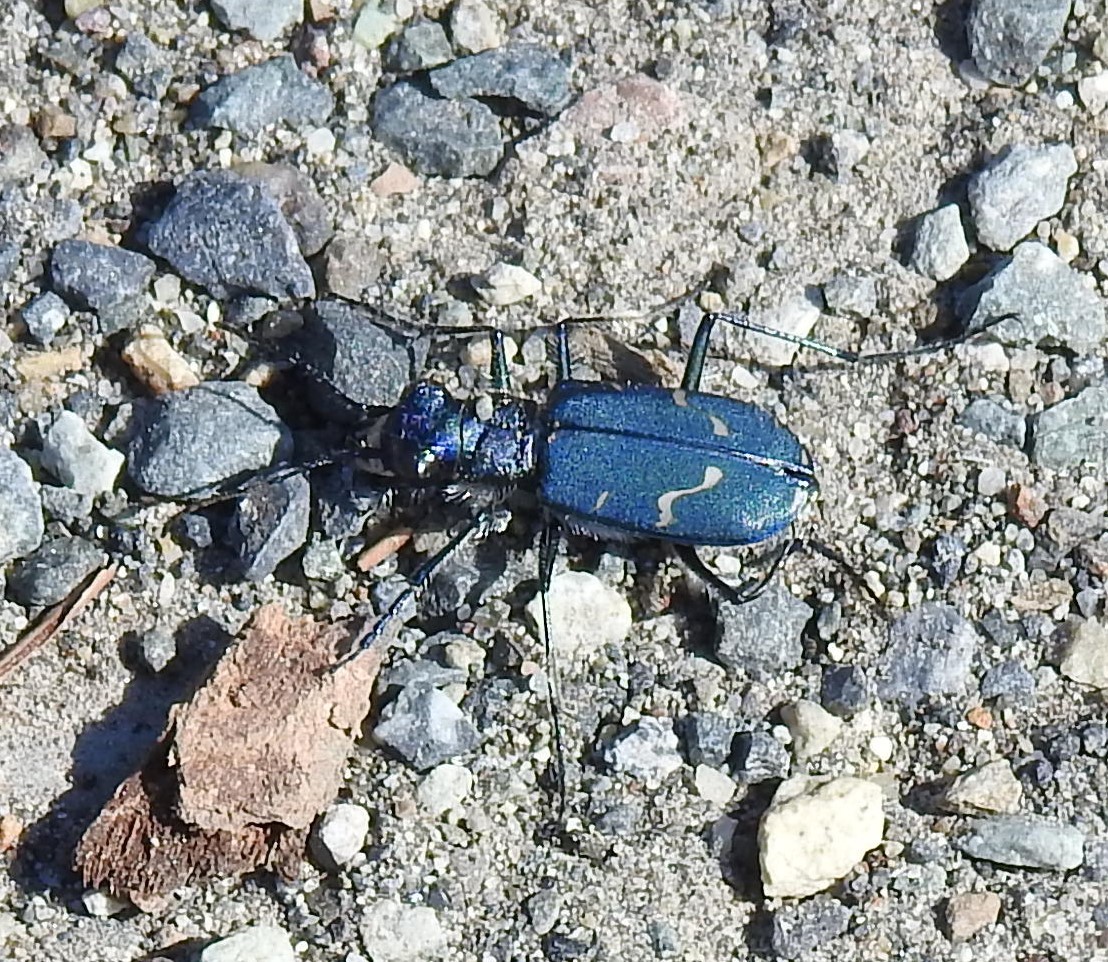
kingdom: Animalia
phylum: Arthropoda
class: Insecta
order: Coleoptera
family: Carabidae
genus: Cicindela
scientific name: Cicindela depressula
